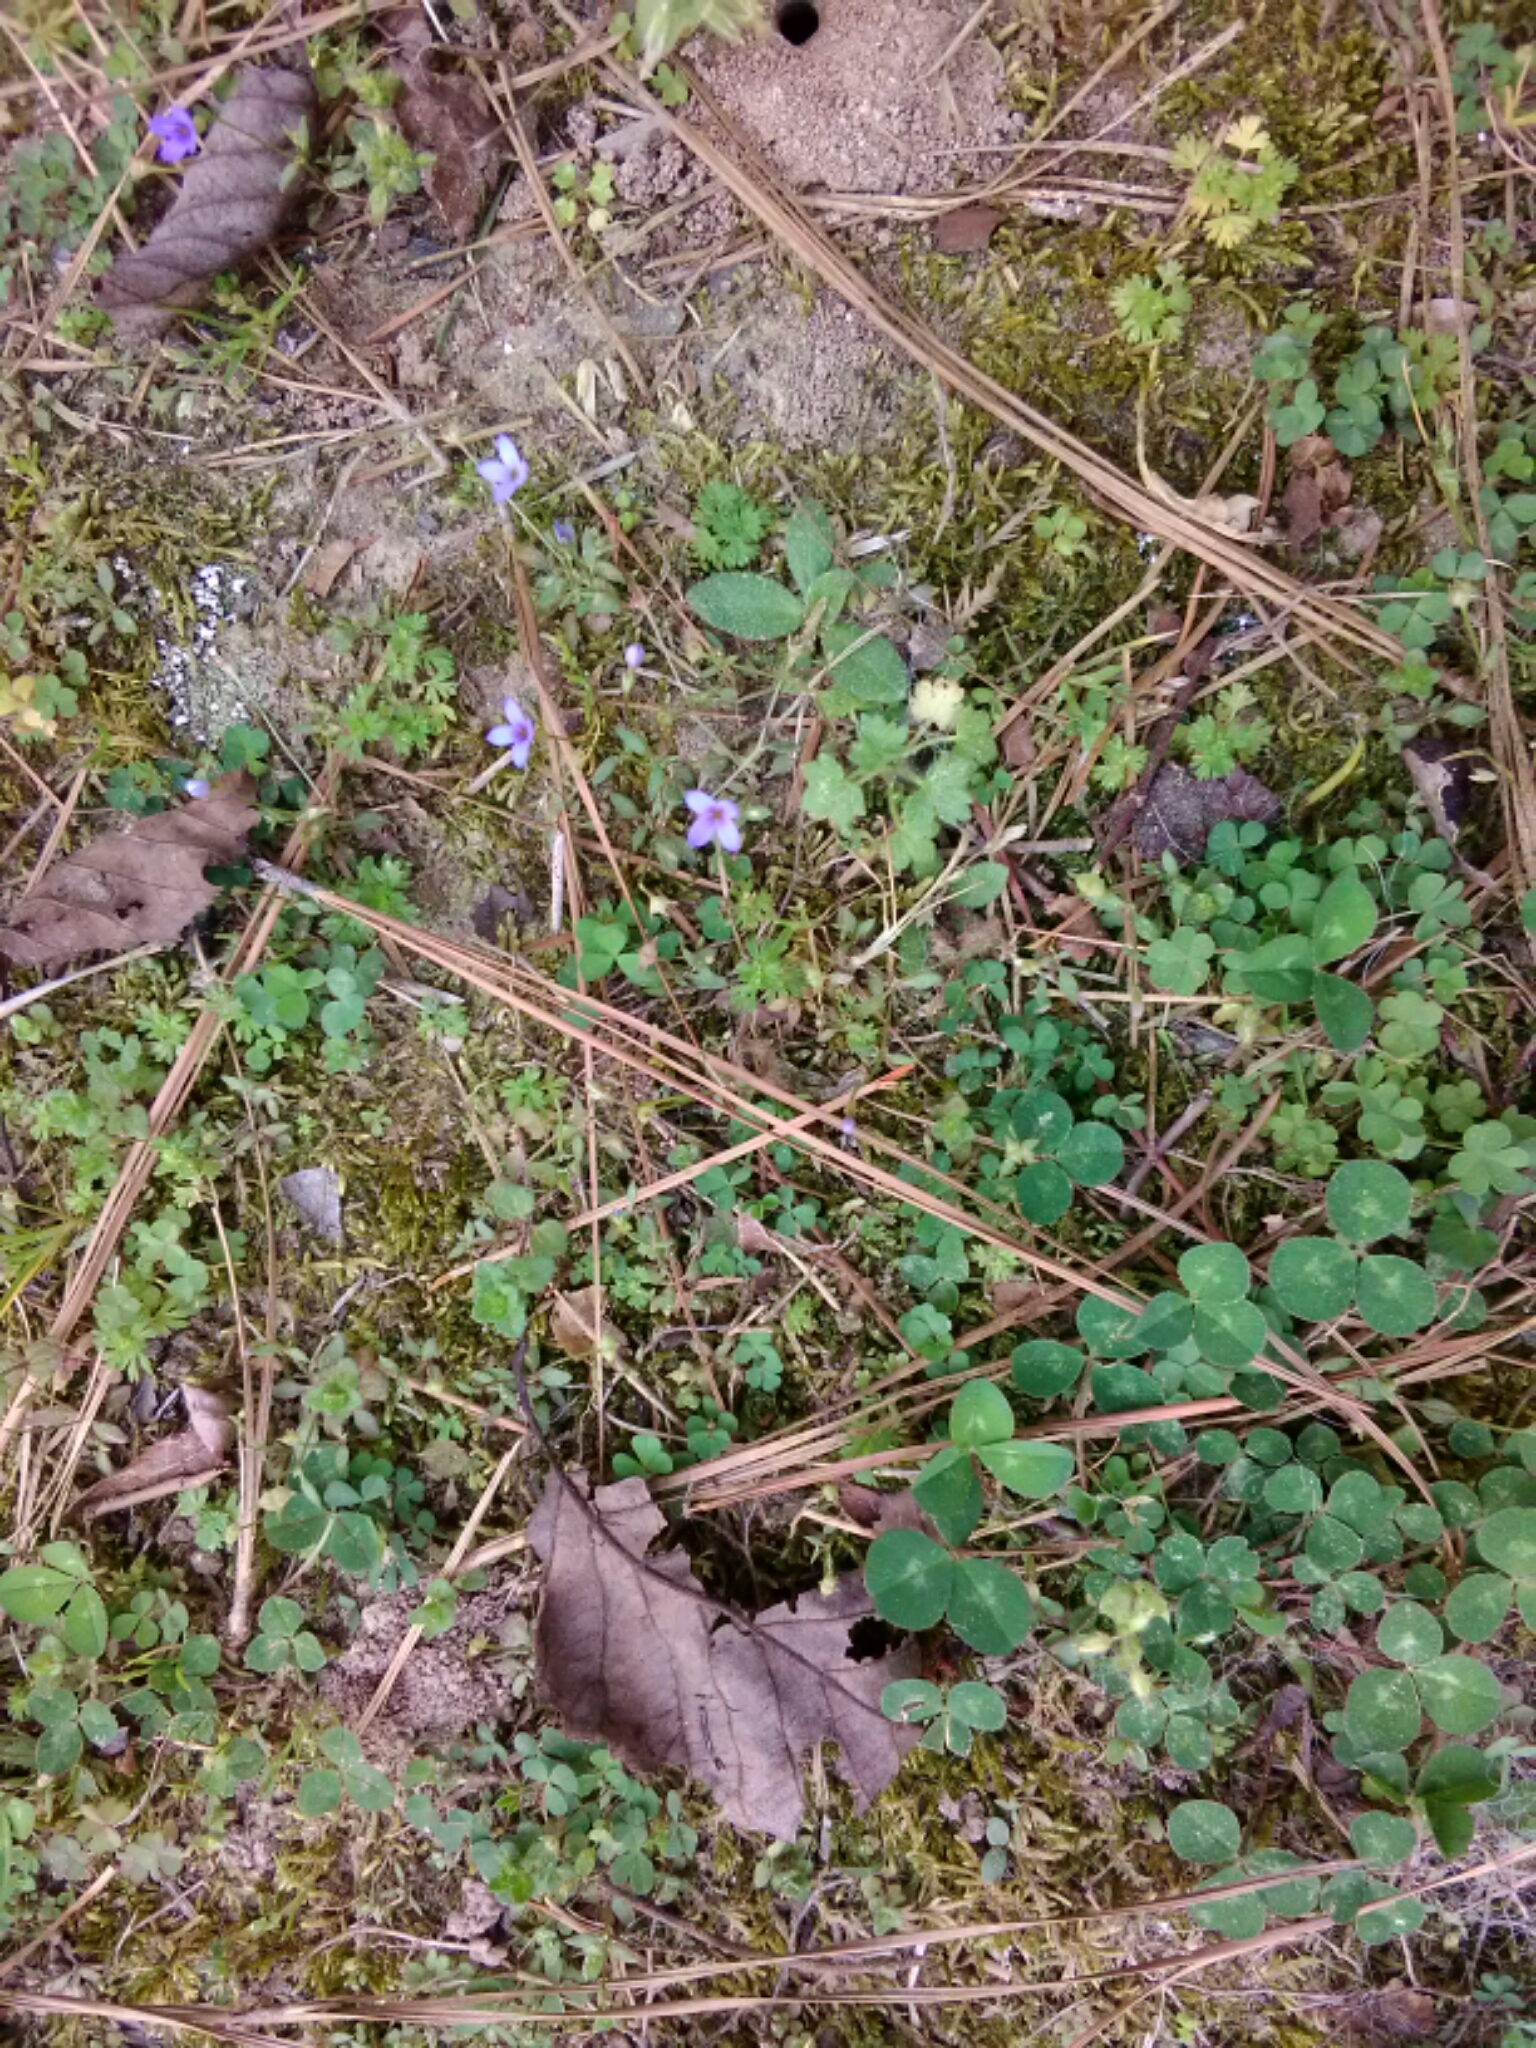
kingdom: Plantae
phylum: Tracheophyta
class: Magnoliopsida
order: Gentianales
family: Rubiaceae
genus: Houstonia
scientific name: Houstonia pusilla
